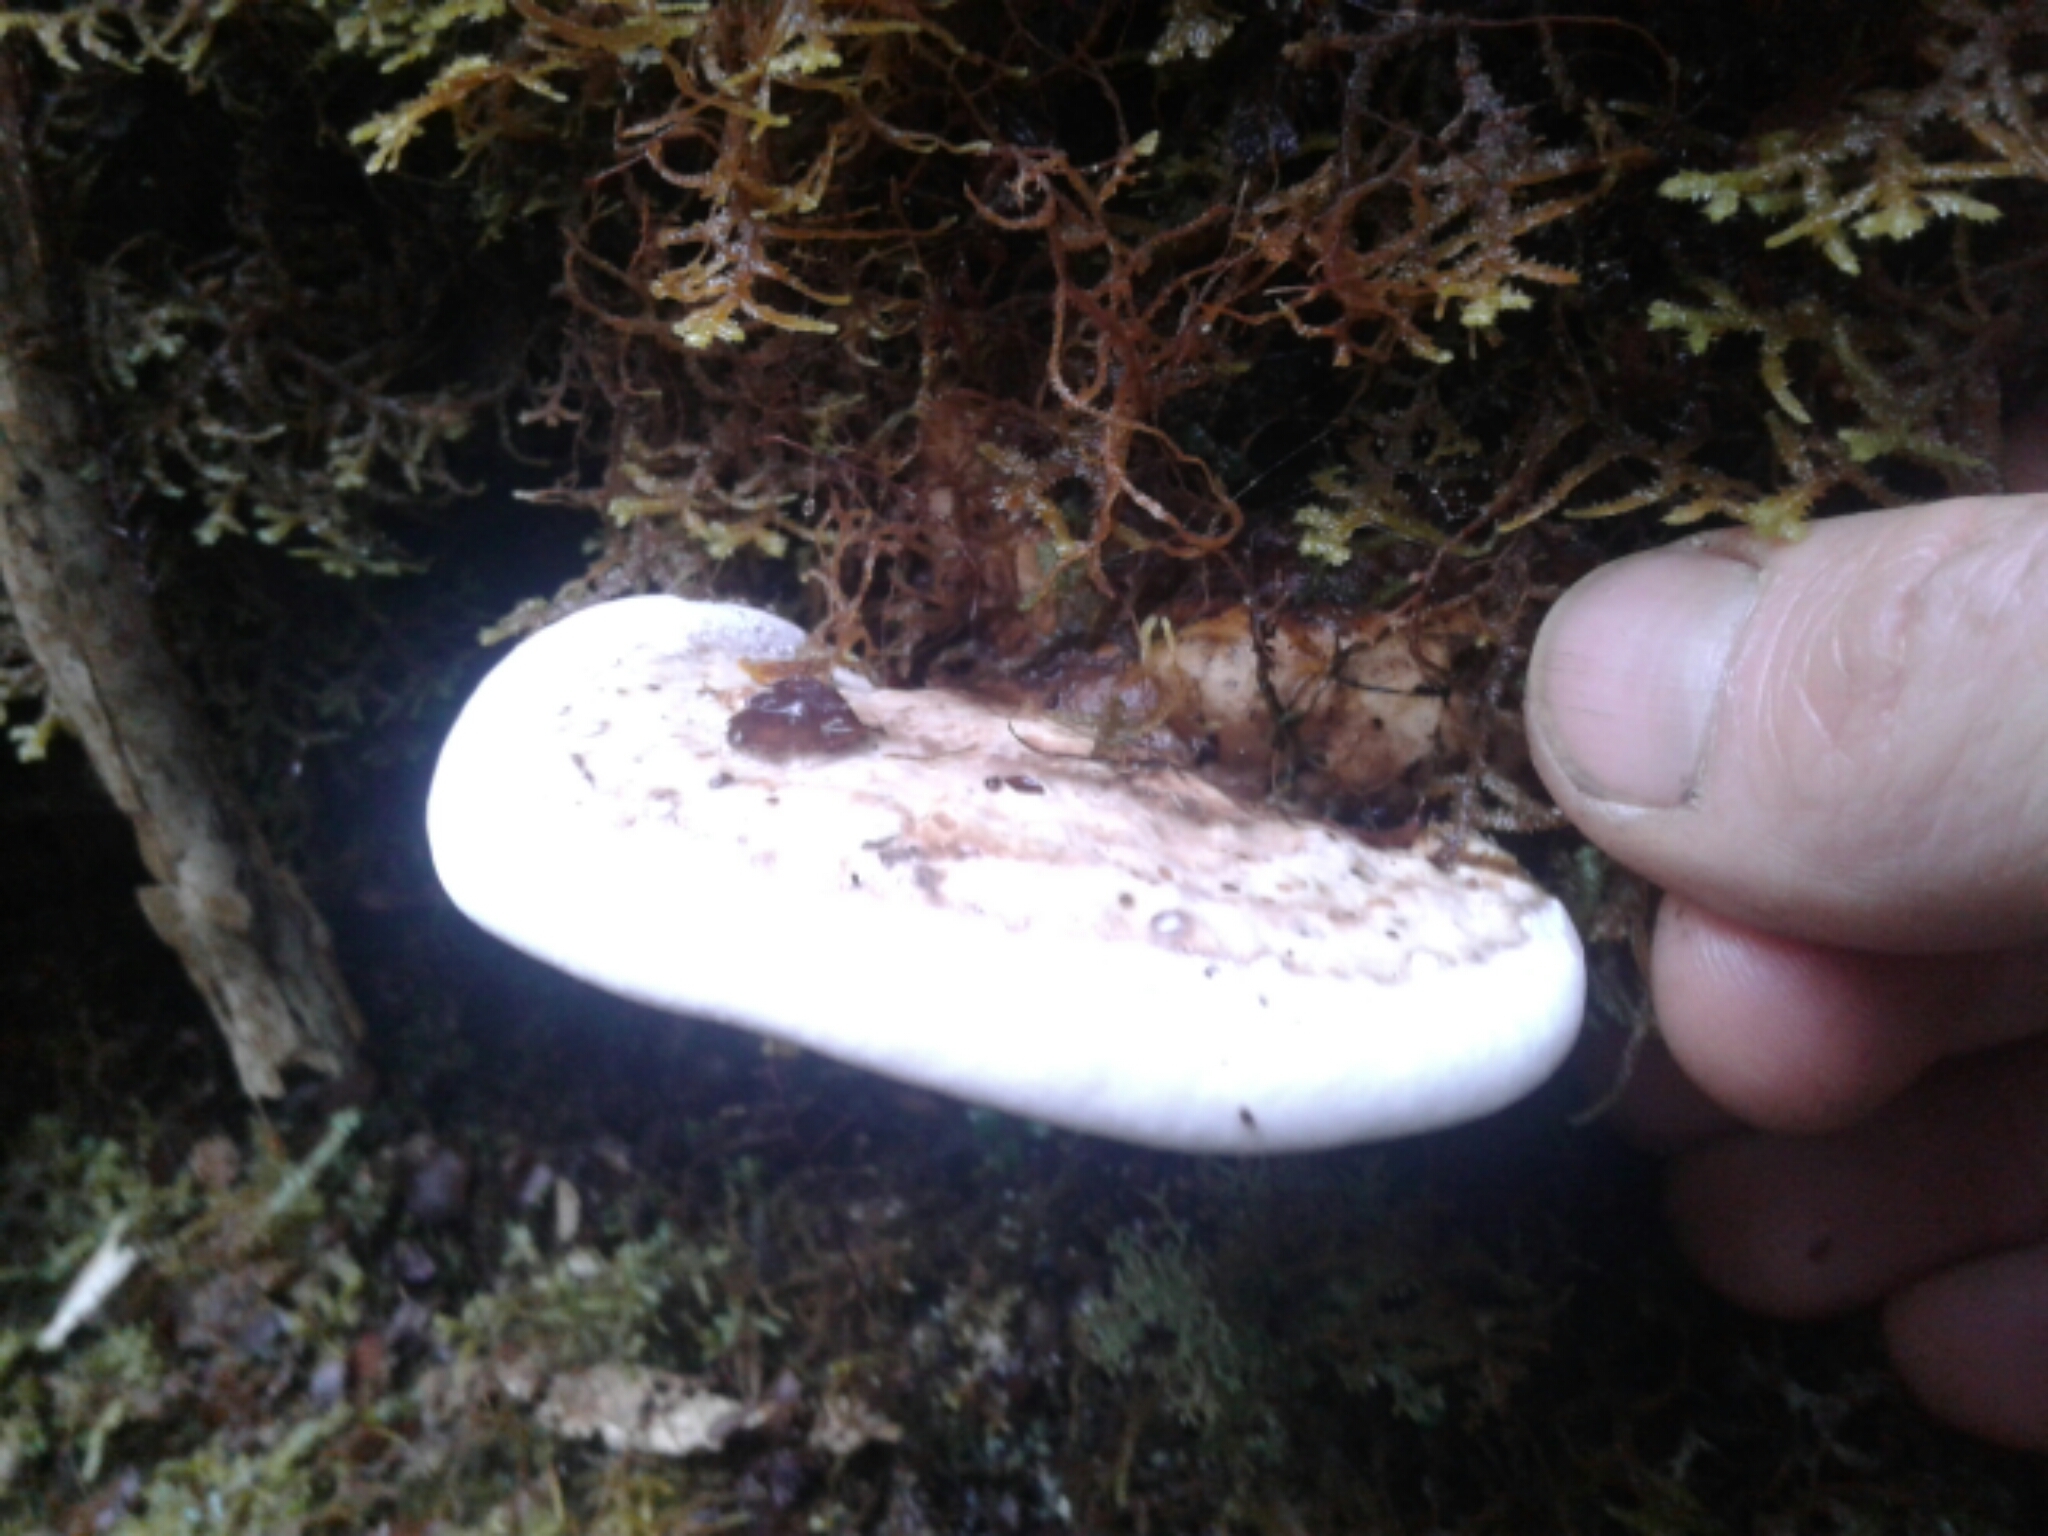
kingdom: Fungi
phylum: Basidiomycota
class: Agaricomycetes
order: Polyporales
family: Fomitopsidaceae
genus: Pilatoporus
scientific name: Pilatoporus hemitephrus
